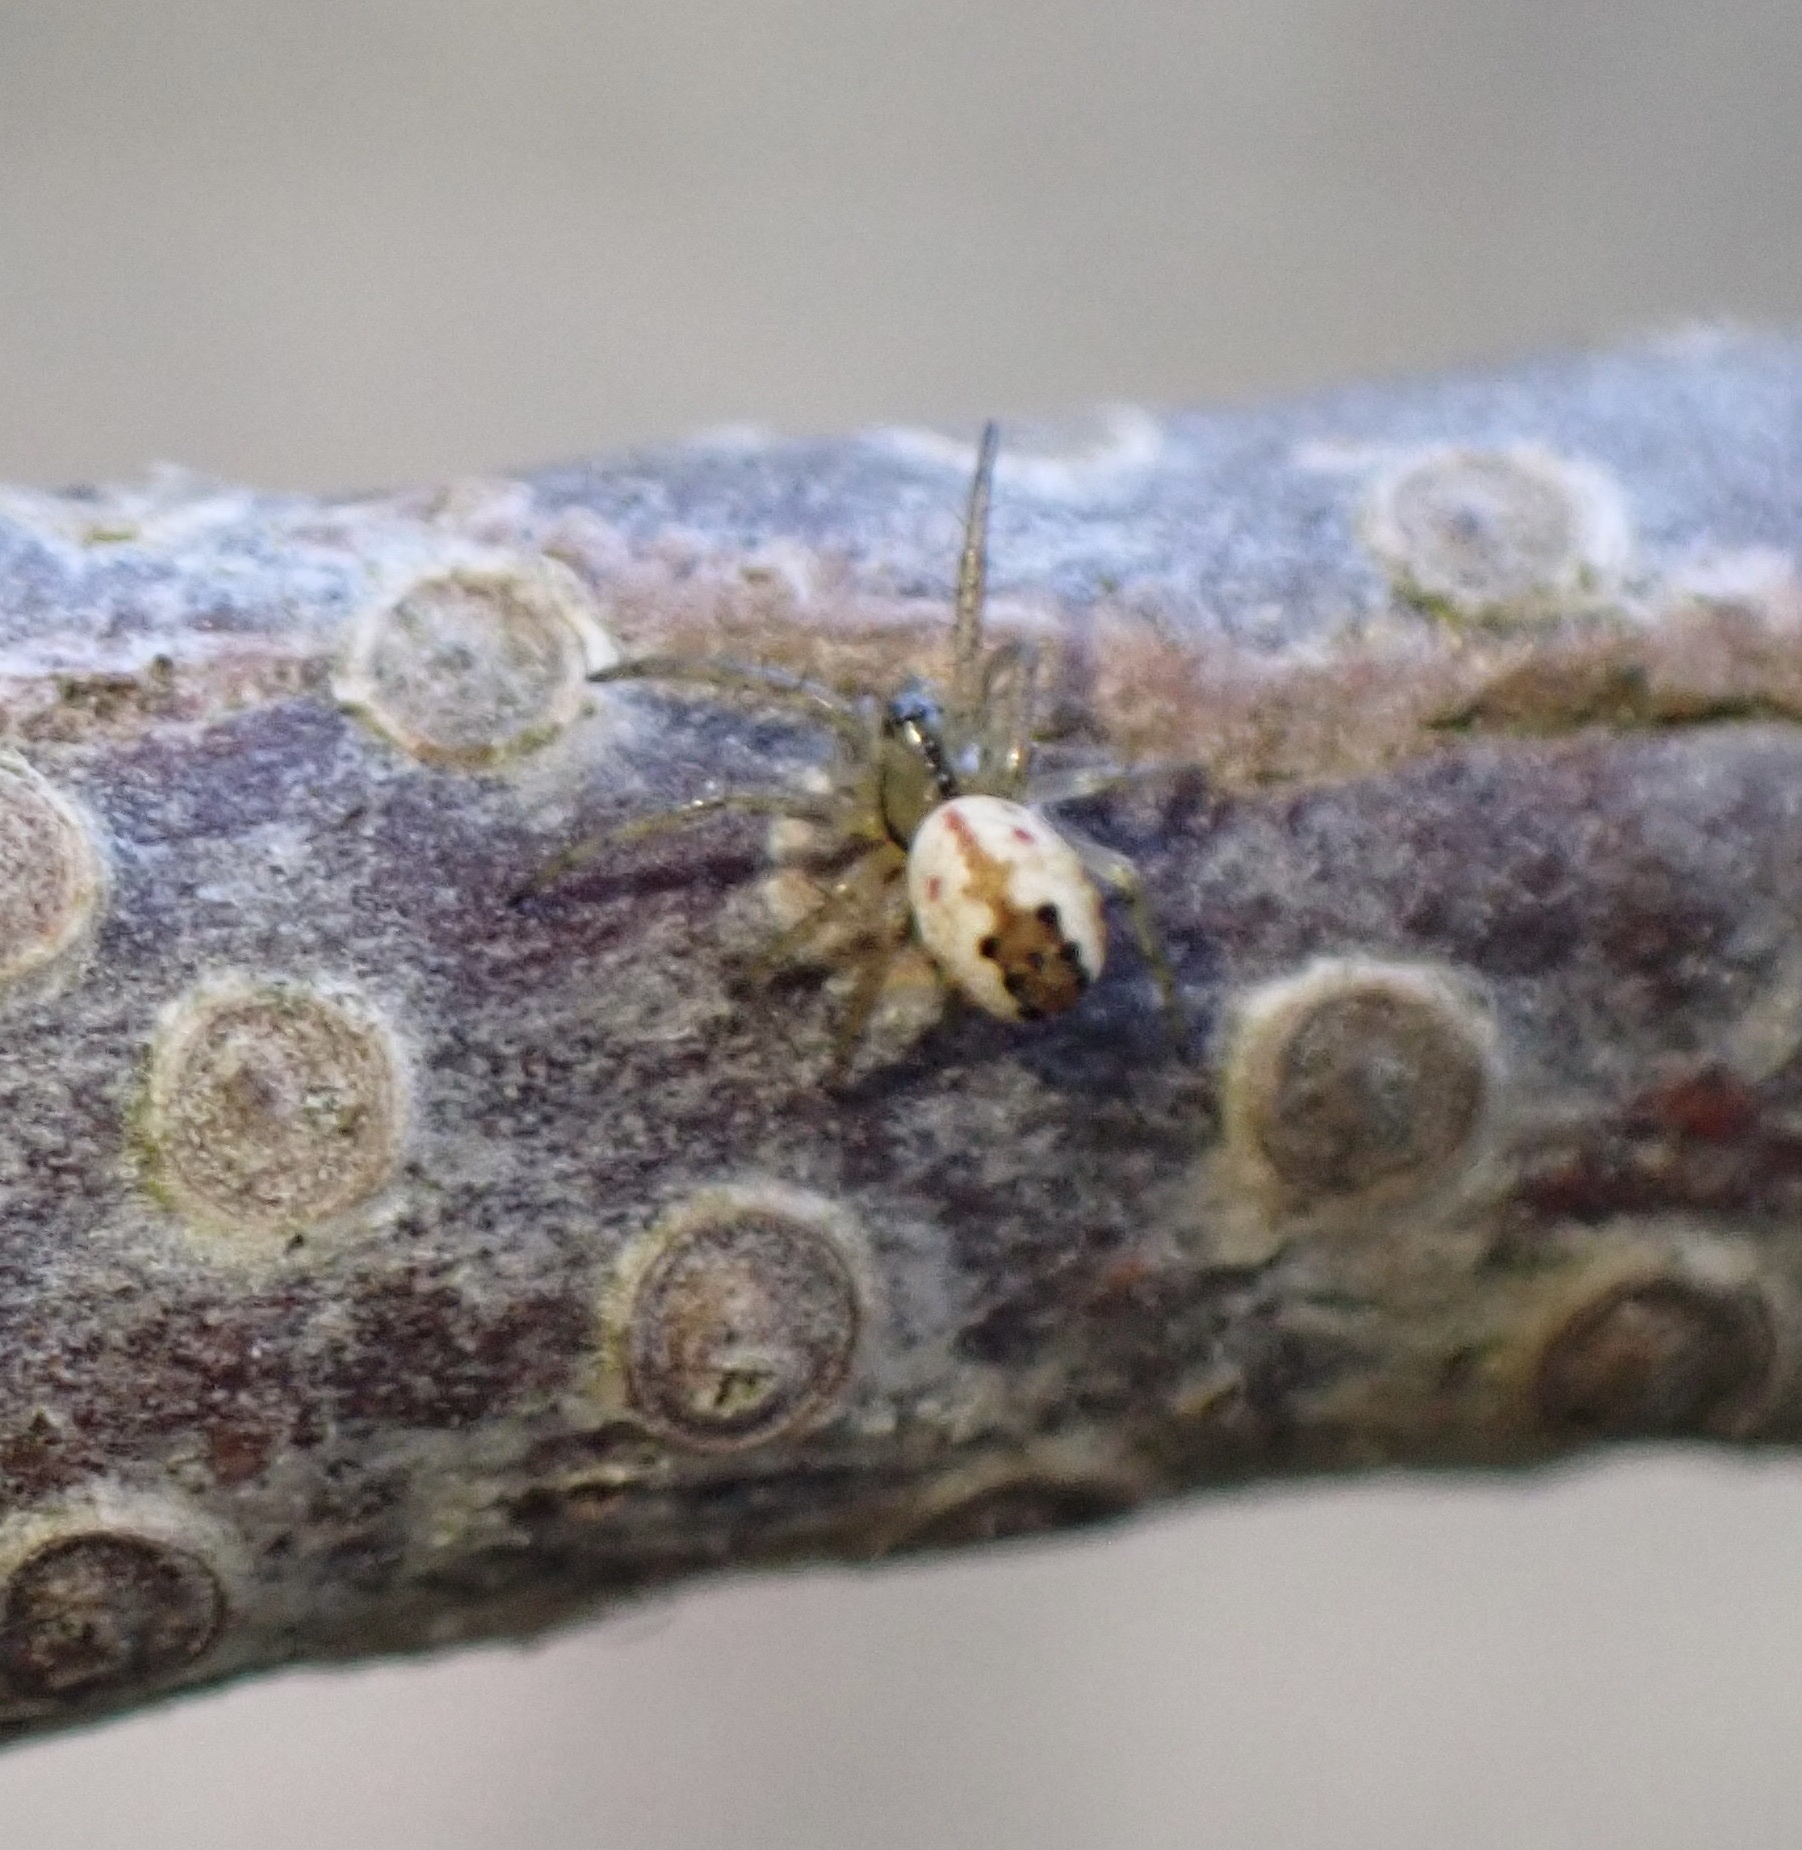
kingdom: Animalia
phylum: Arthropoda
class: Arachnida
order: Araneae
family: Araneidae
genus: Mangora
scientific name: Mangora acalypha
